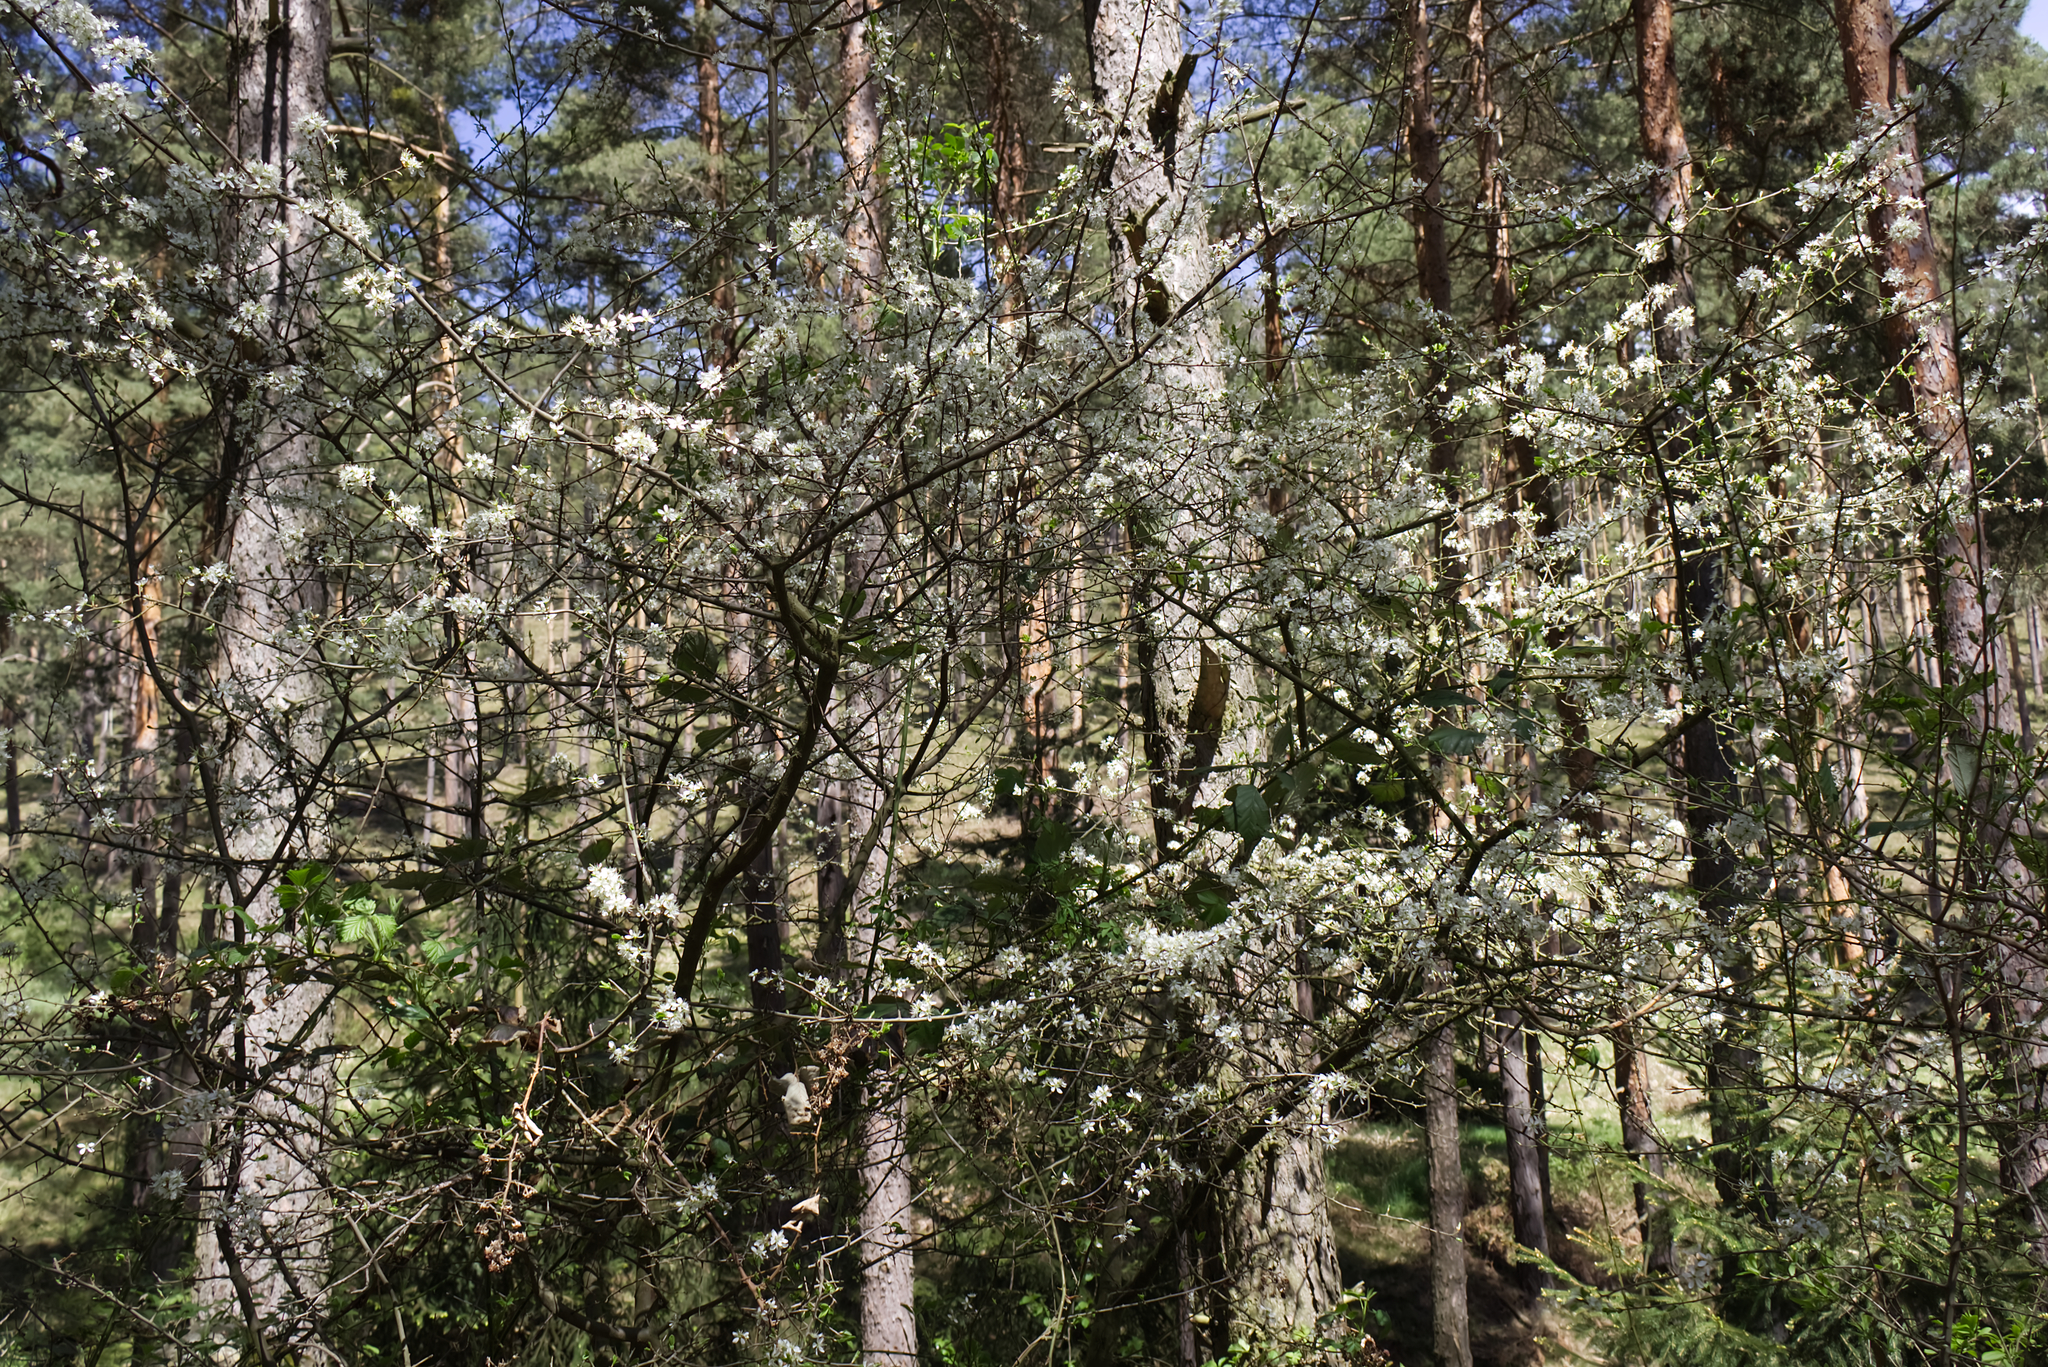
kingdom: Plantae
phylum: Tracheophyta
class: Magnoliopsida
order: Rosales
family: Rosaceae
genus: Prunus
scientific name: Prunus spinosa
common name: Blackthorn
